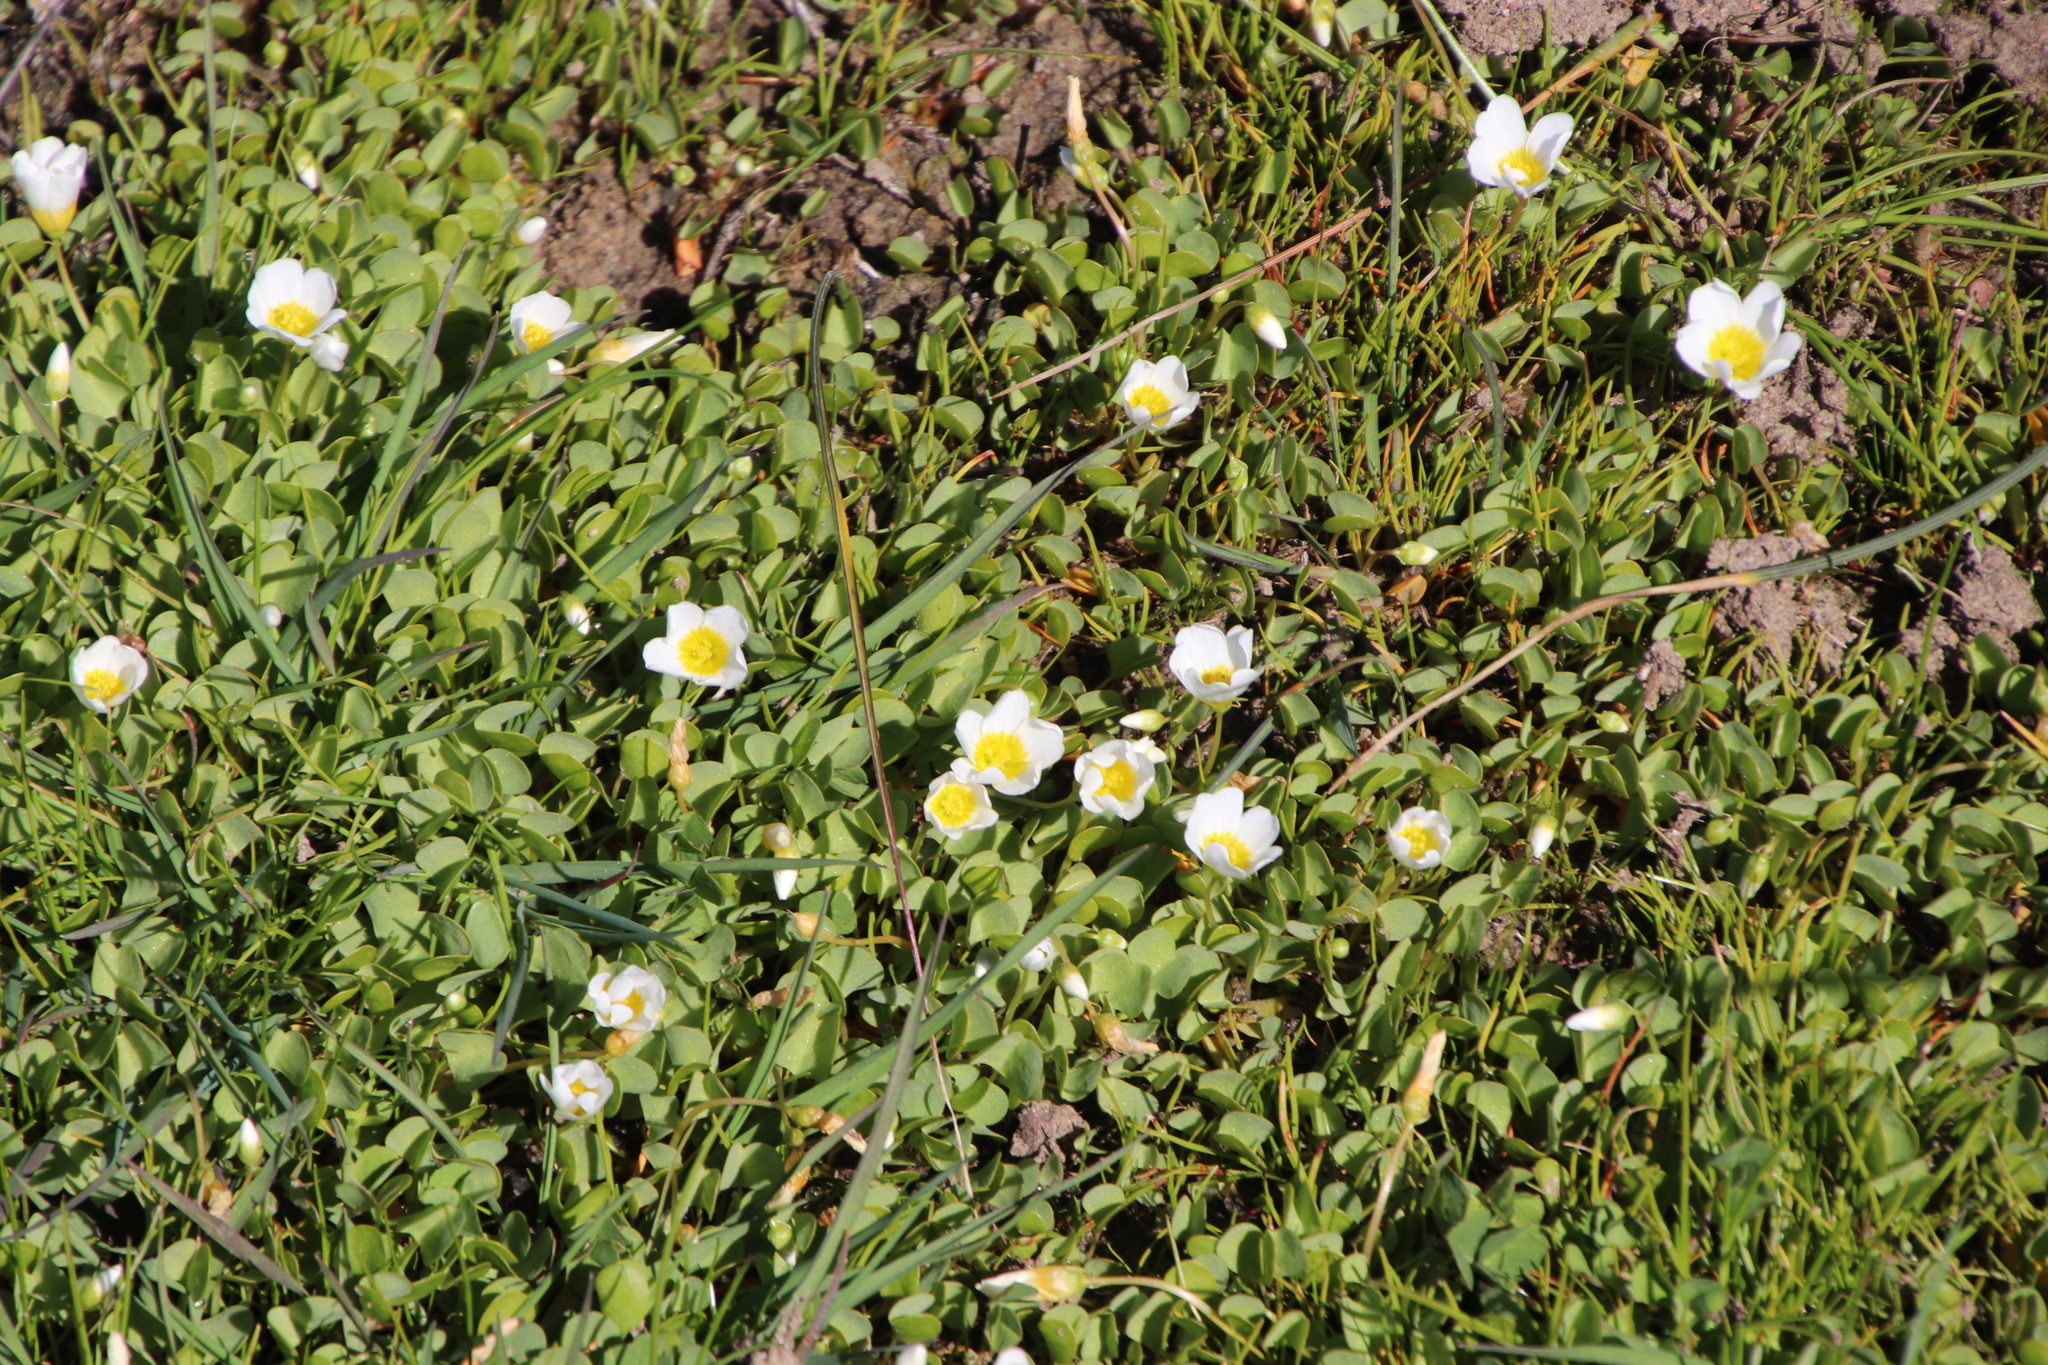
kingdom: Plantae
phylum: Tracheophyta
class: Magnoliopsida
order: Oxalidales
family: Oxalidaceae
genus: Oxalis
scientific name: Oxalis dregei
